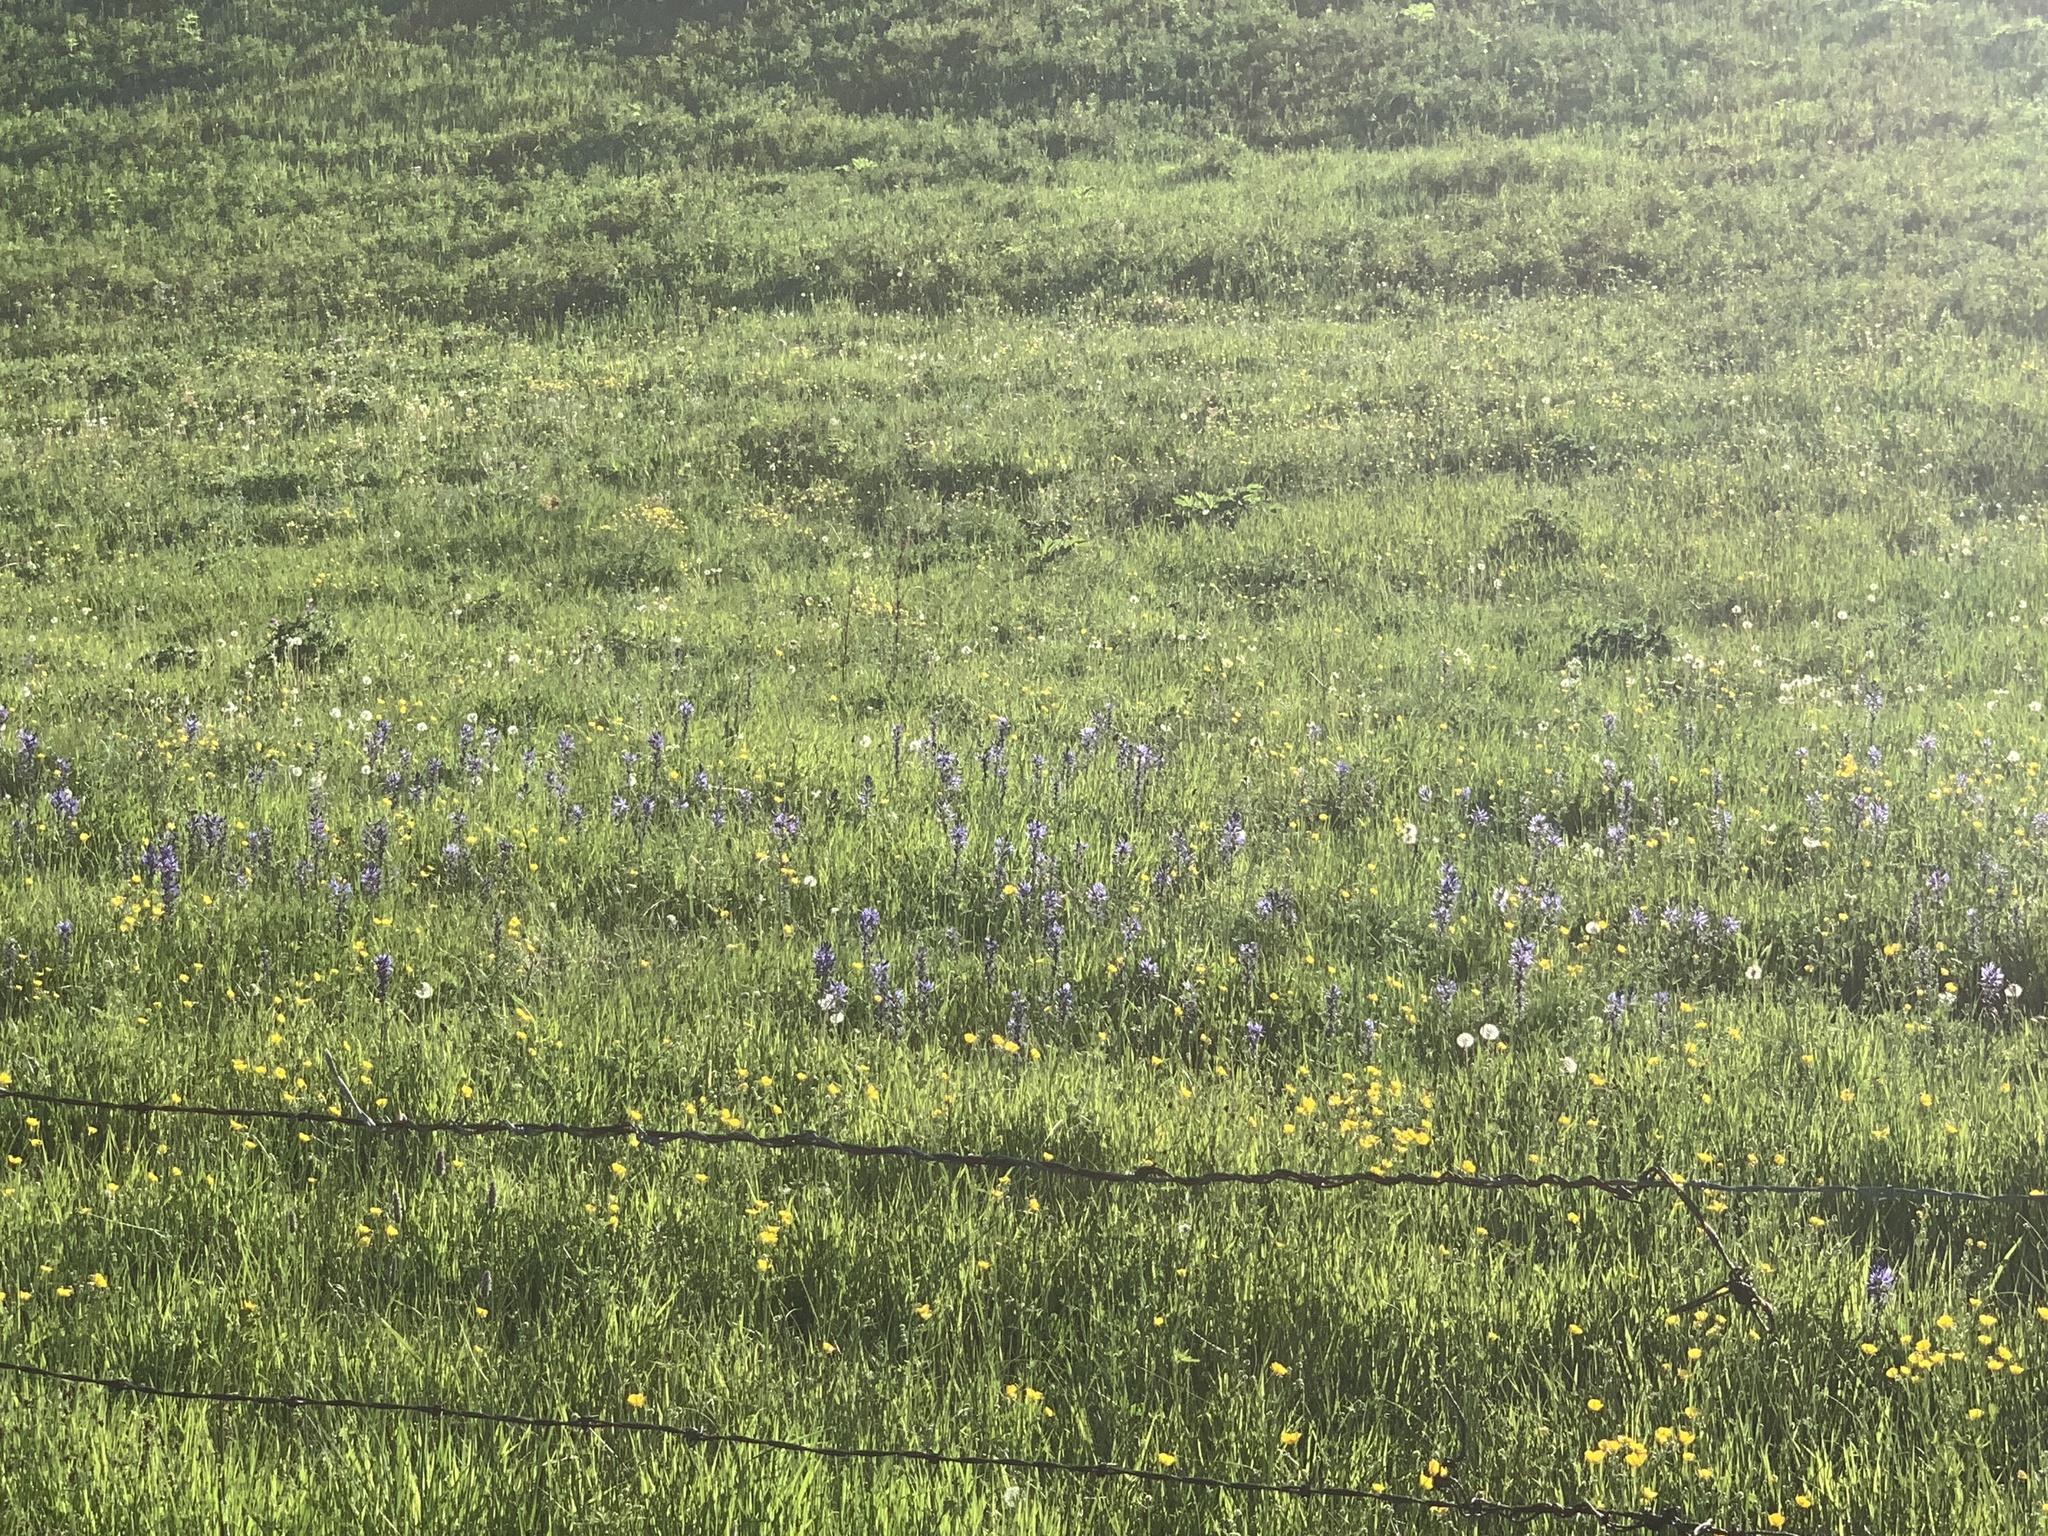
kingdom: Plantae
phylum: Tracheophyta
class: Liliopsida
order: Asparagales
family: Asparagaceae
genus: Camassia
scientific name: Camassia quamash
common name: Common camas
